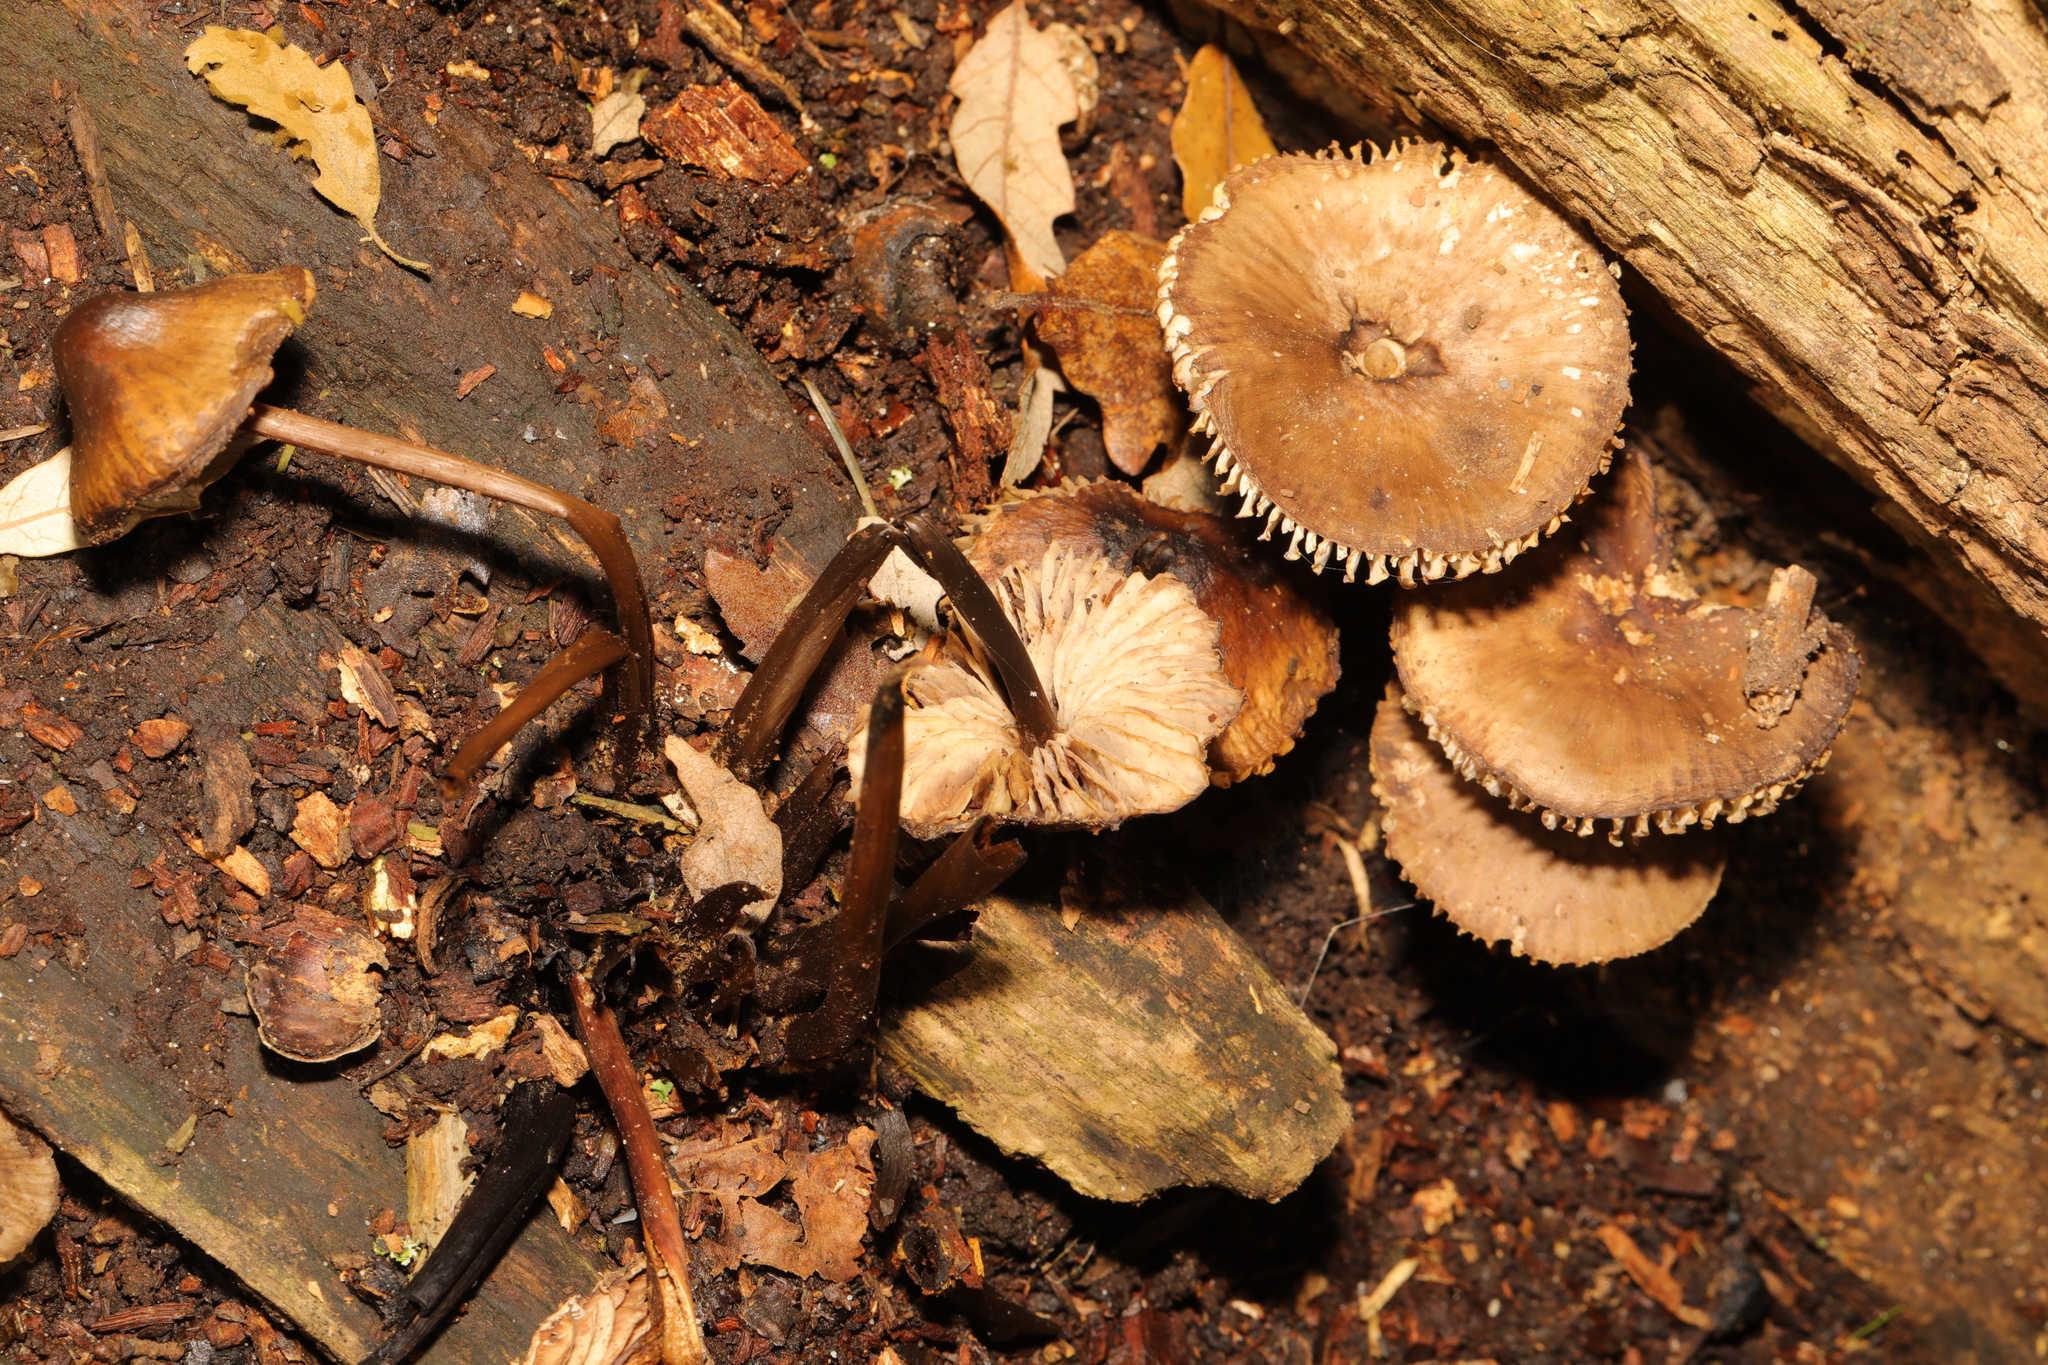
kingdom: Fungi
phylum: Basidiomycota
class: Agaricomycetes
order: Agaricales
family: Mycenaceae
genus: Mycena
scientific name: Mycena
